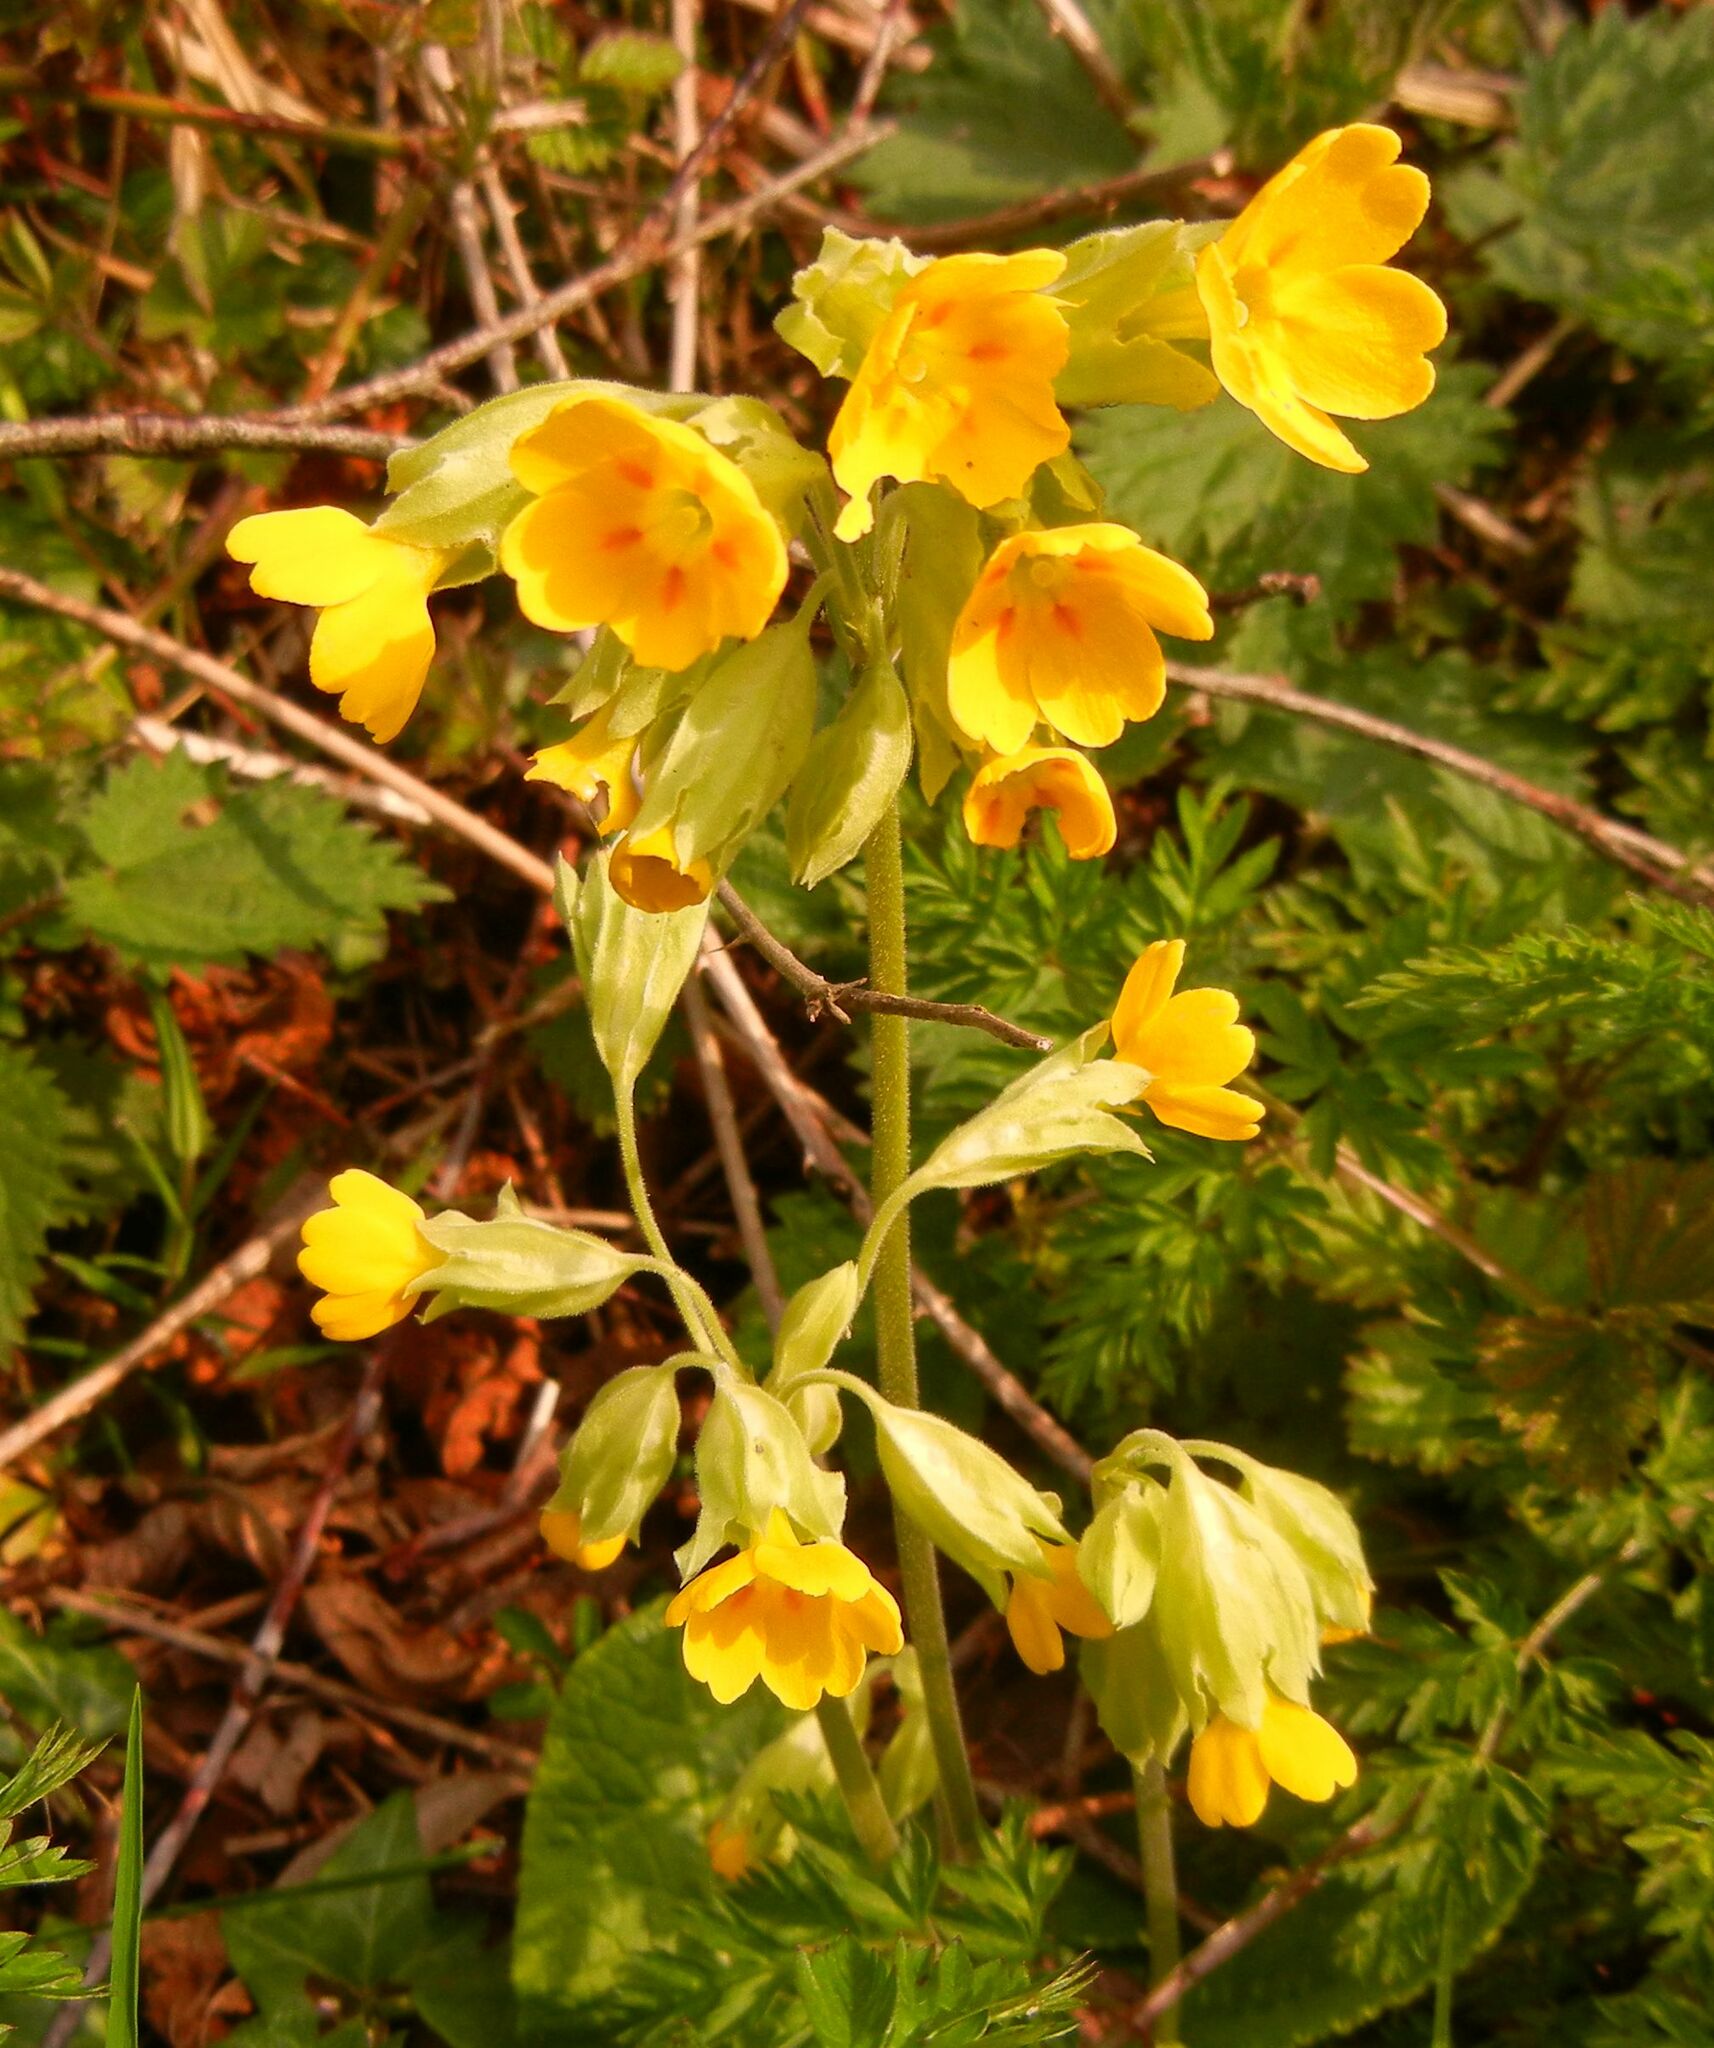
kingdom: Plantae
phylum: Tracheophyta
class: Magnoliopsida
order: Ericales
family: Primulaceae
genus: Primula
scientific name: Primula veris
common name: Cowslip
